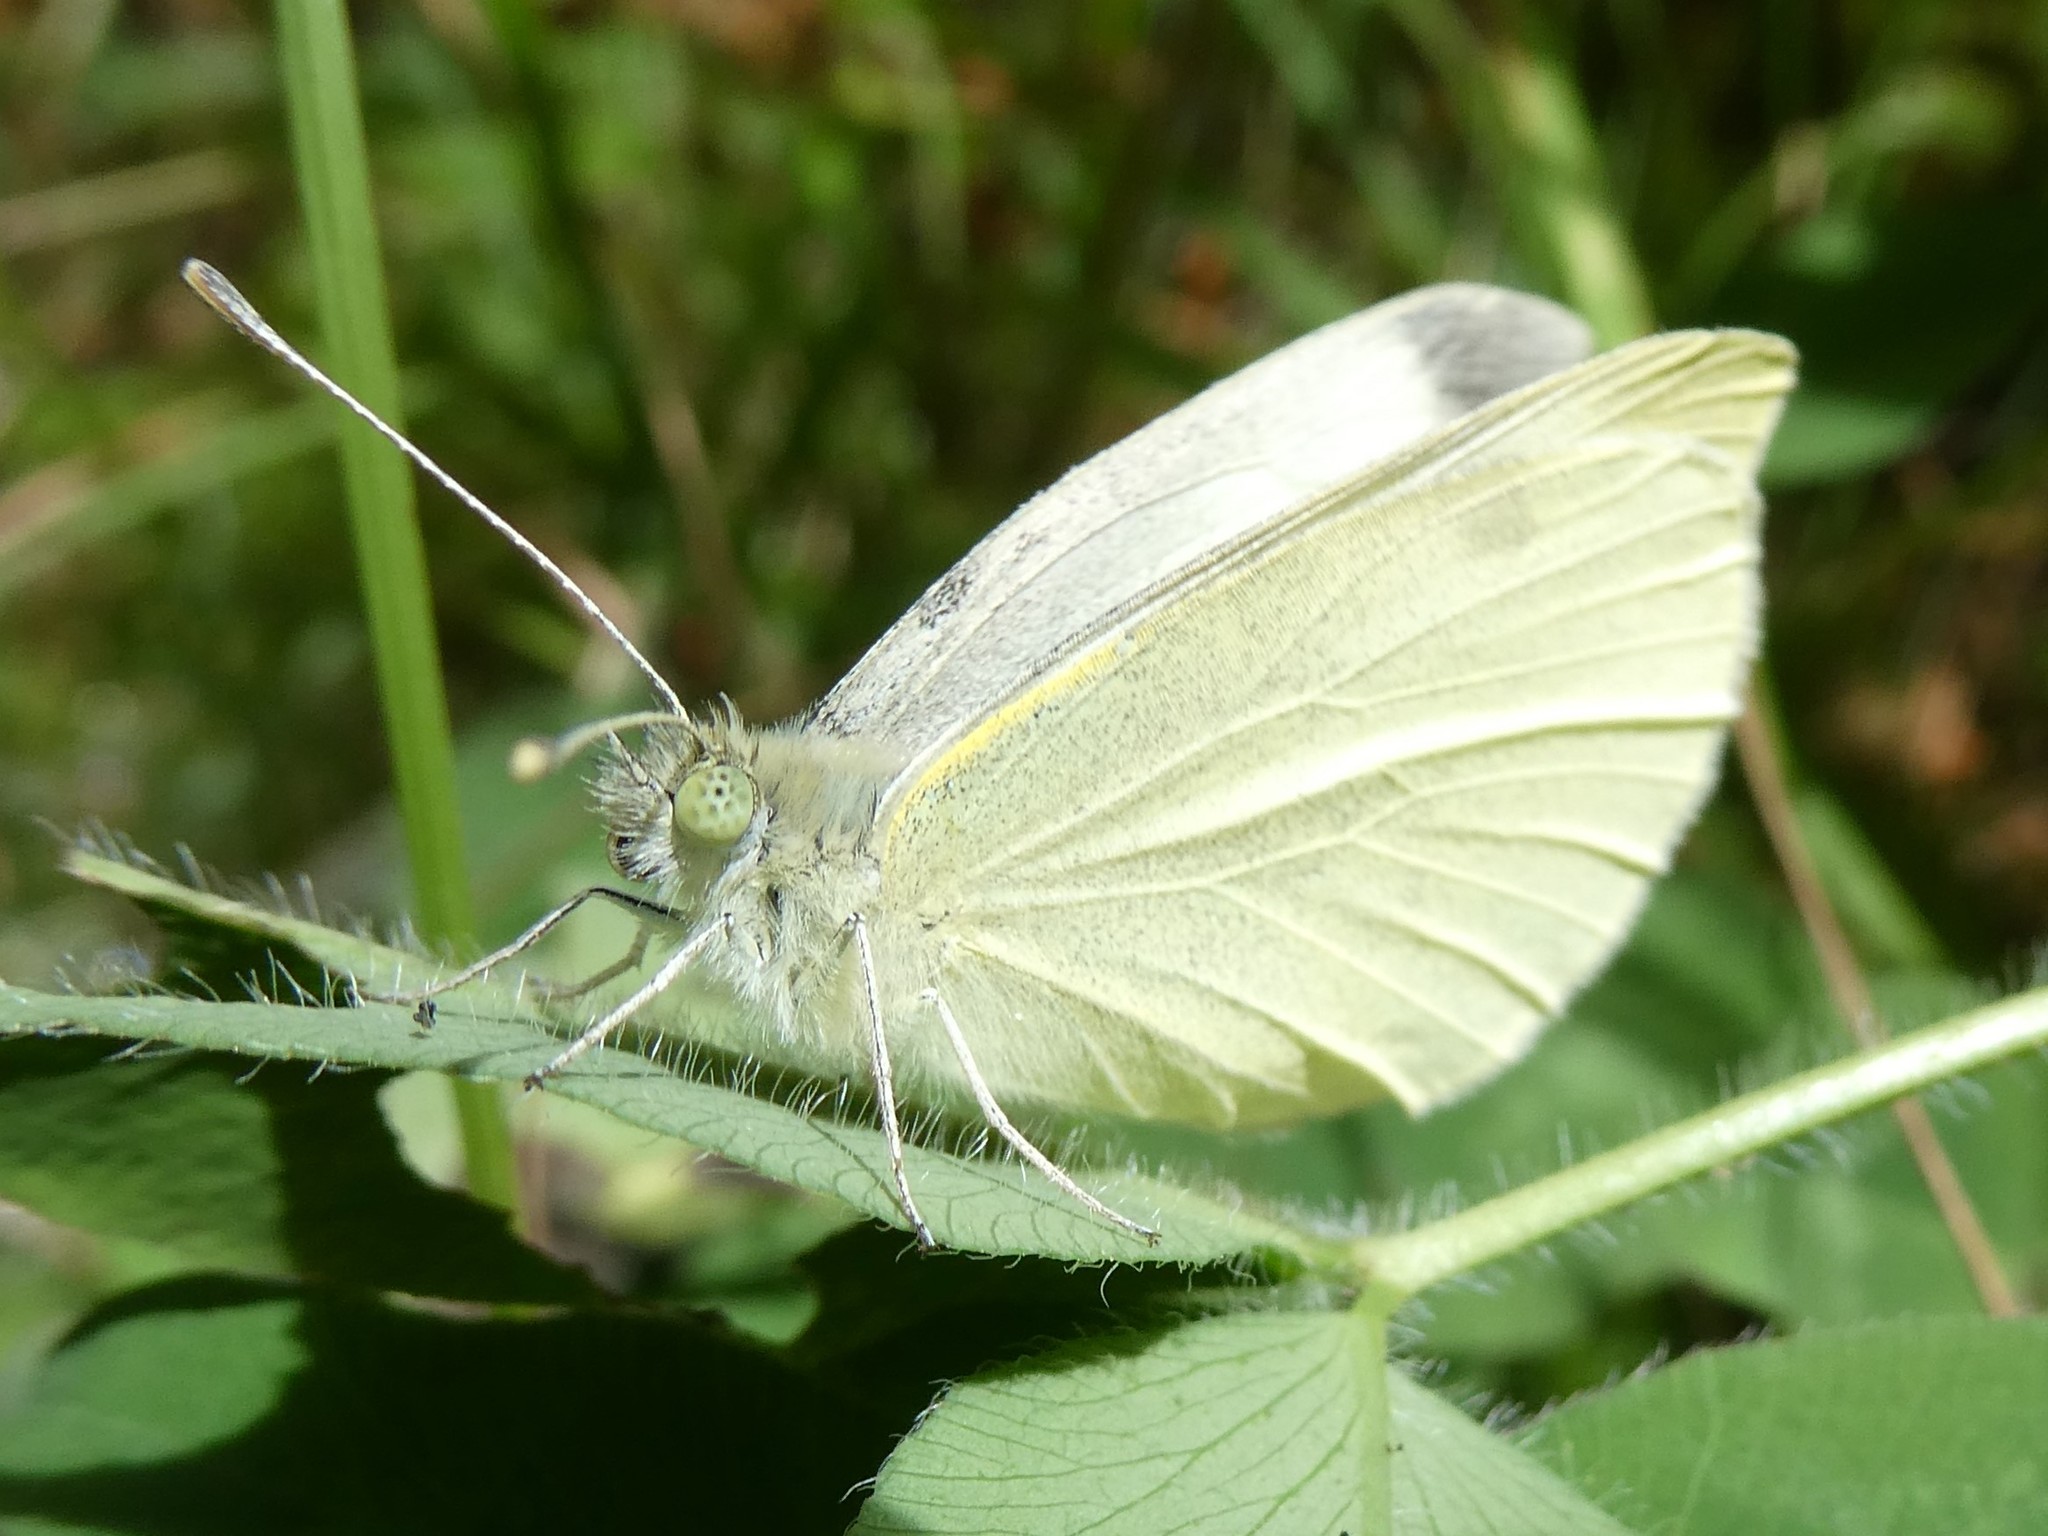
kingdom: Animalia
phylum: Arthropoda
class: Insecta
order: Lepidoptera
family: Pieridae
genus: Pieris
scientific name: Pieris rapae
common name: Small white
